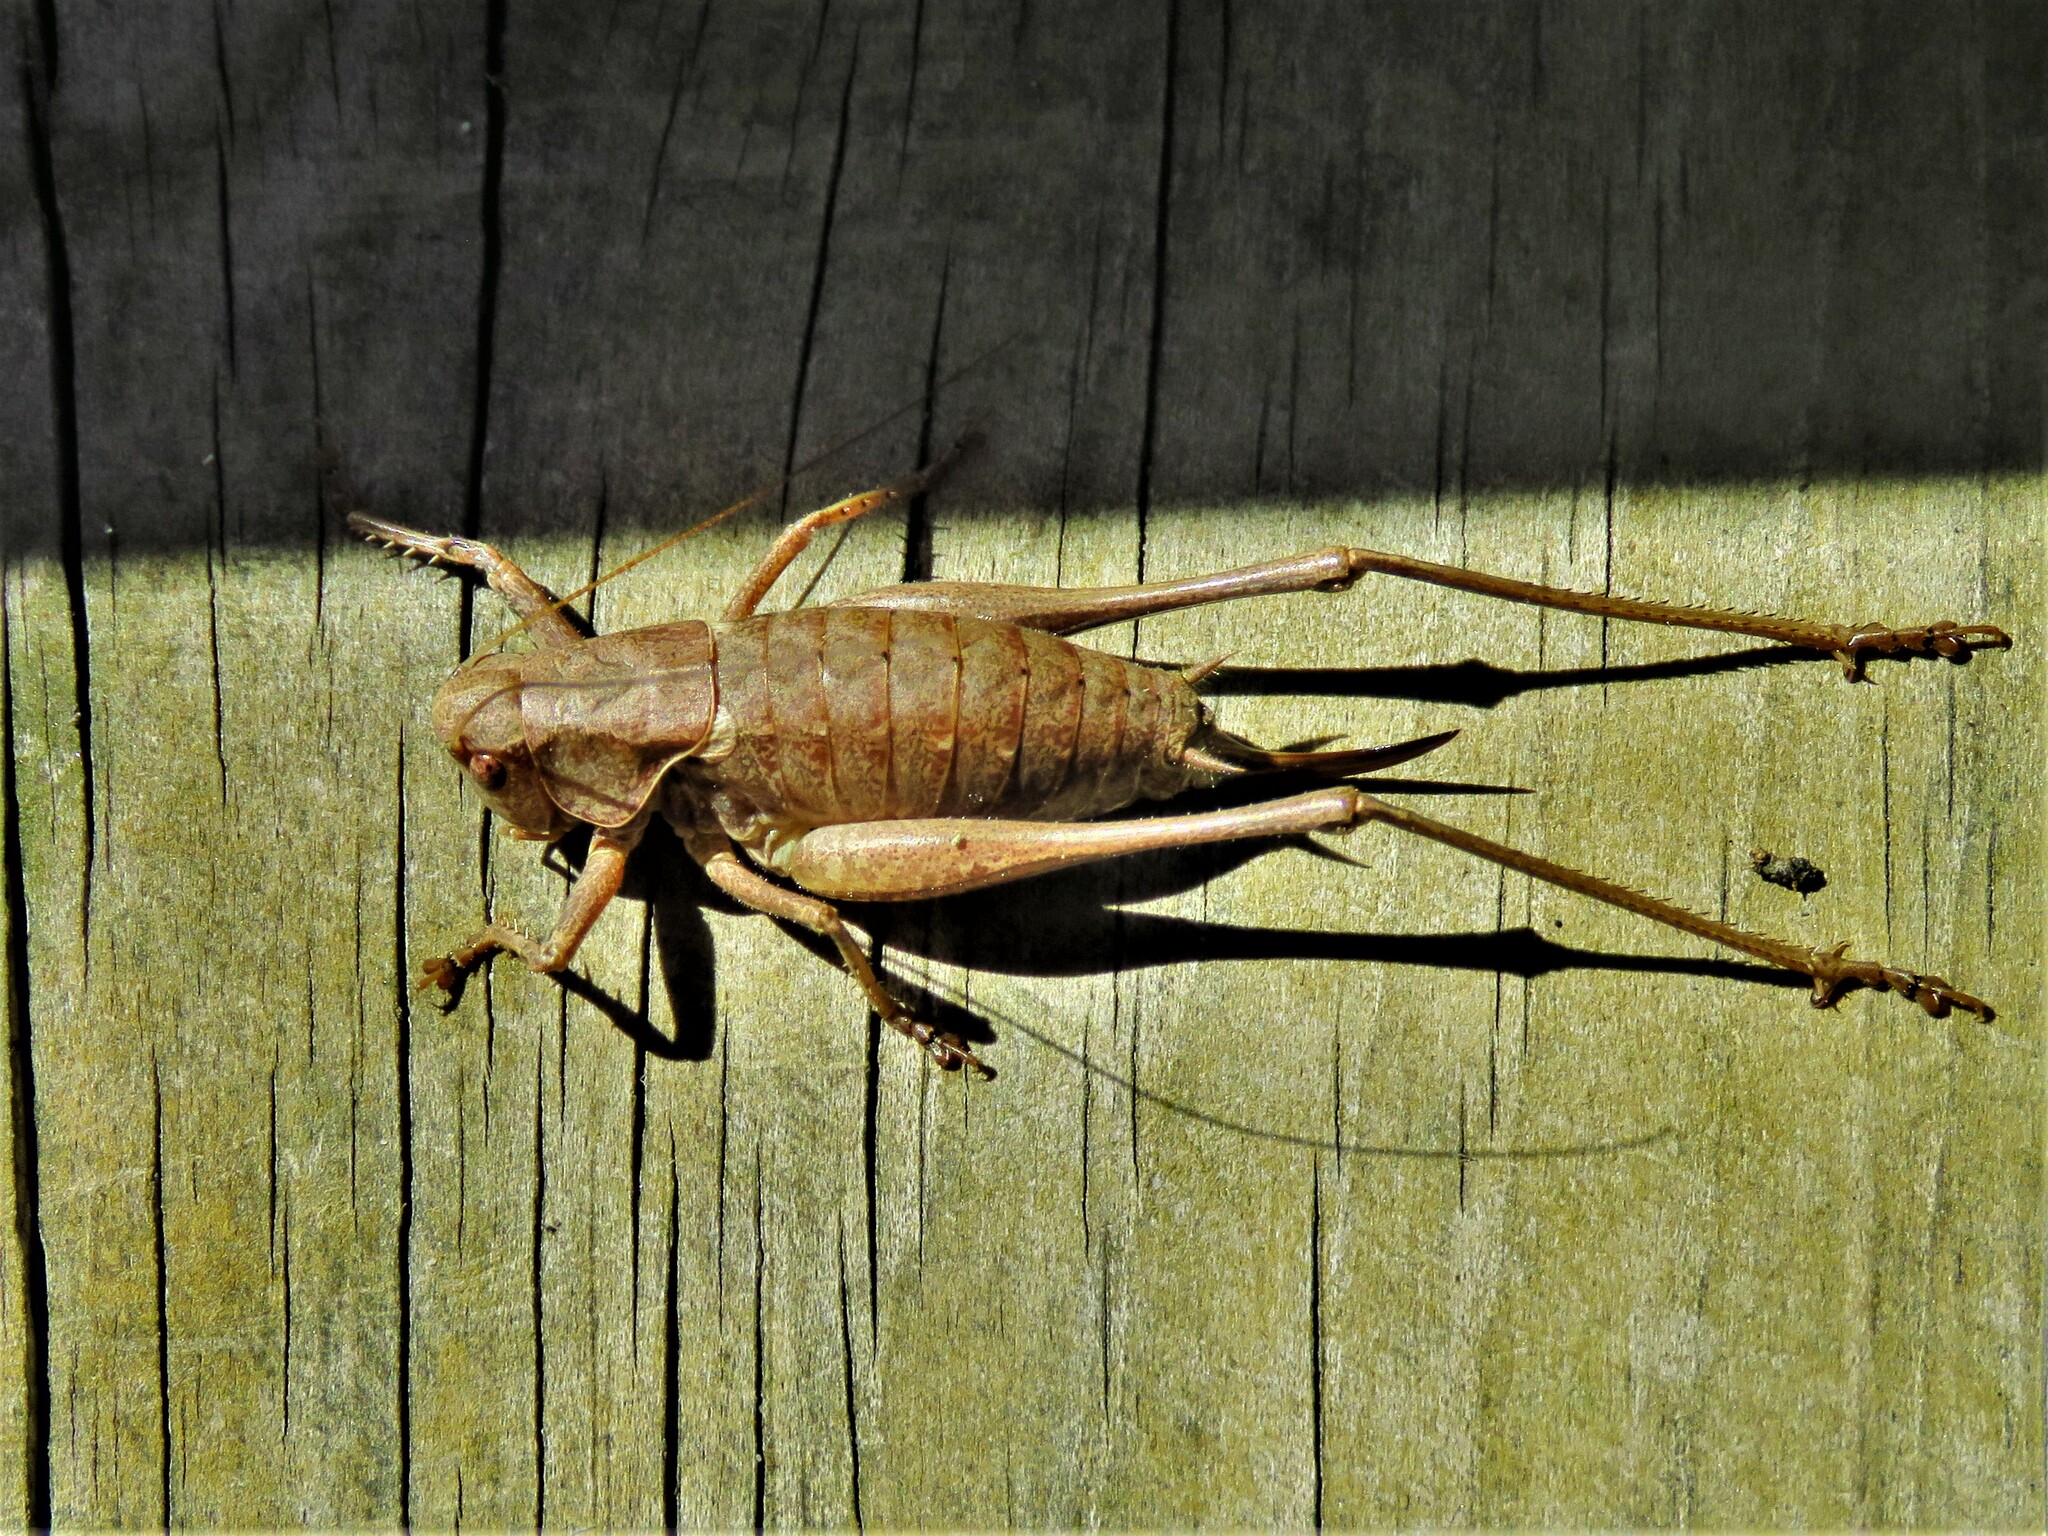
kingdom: Animalia
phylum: Arthropoda
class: Insecta
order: Orthoptera
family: Tettigoniidae
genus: Pholidoptera
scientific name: Pholidoptera griseoaptera
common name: Dark bush-cricket
